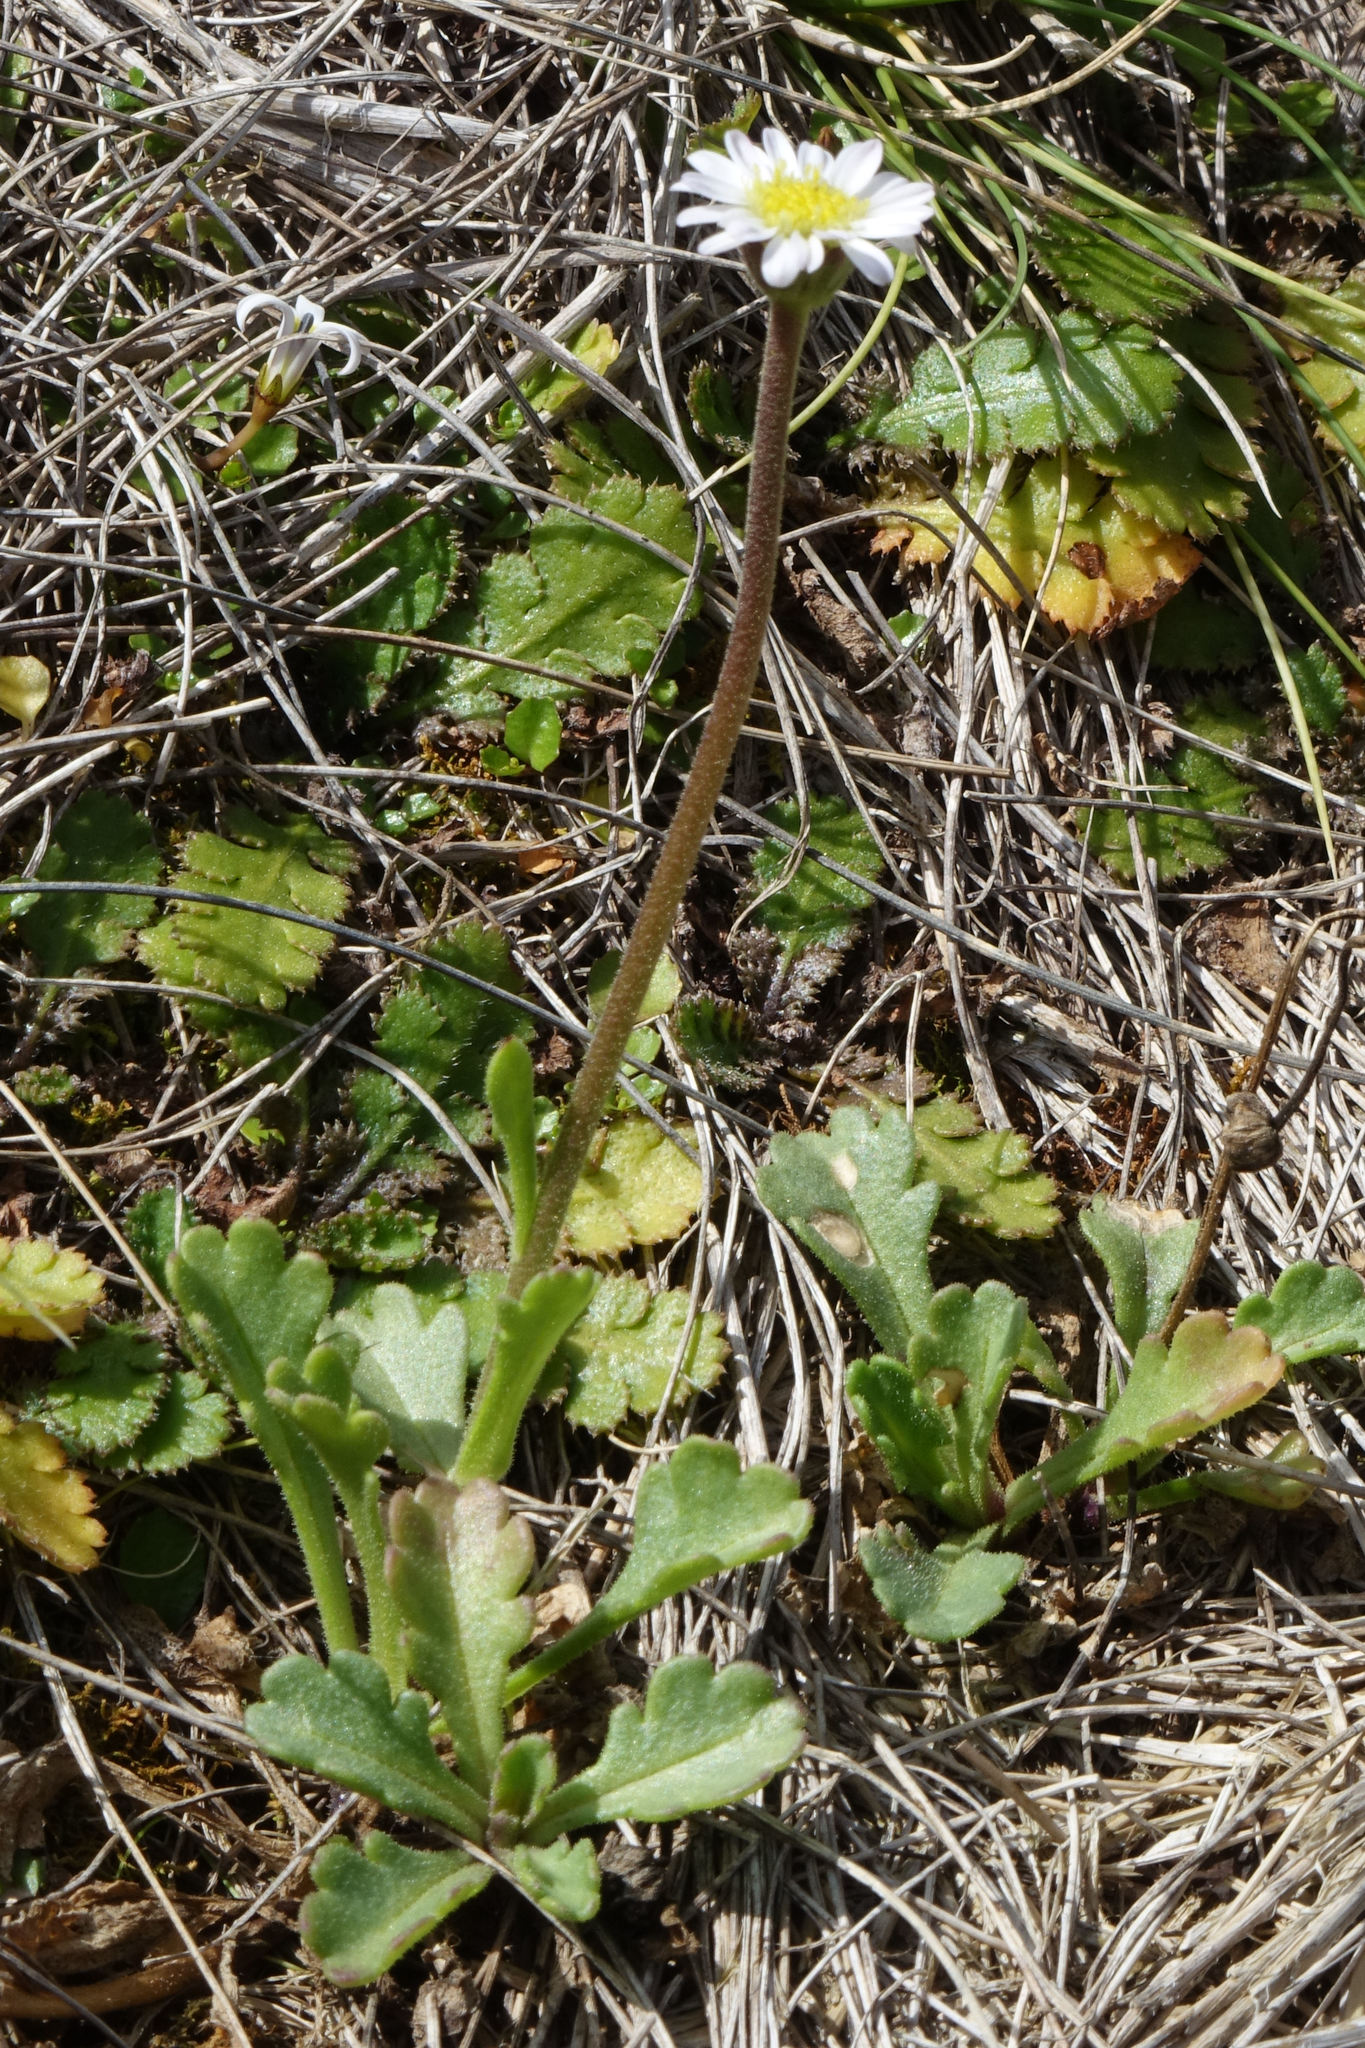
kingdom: Plantae
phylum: Tracheophyta
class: Magnoliopsida
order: Asterales
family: Asteraceae
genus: Brachyscome
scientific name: Brachyscome radicata
